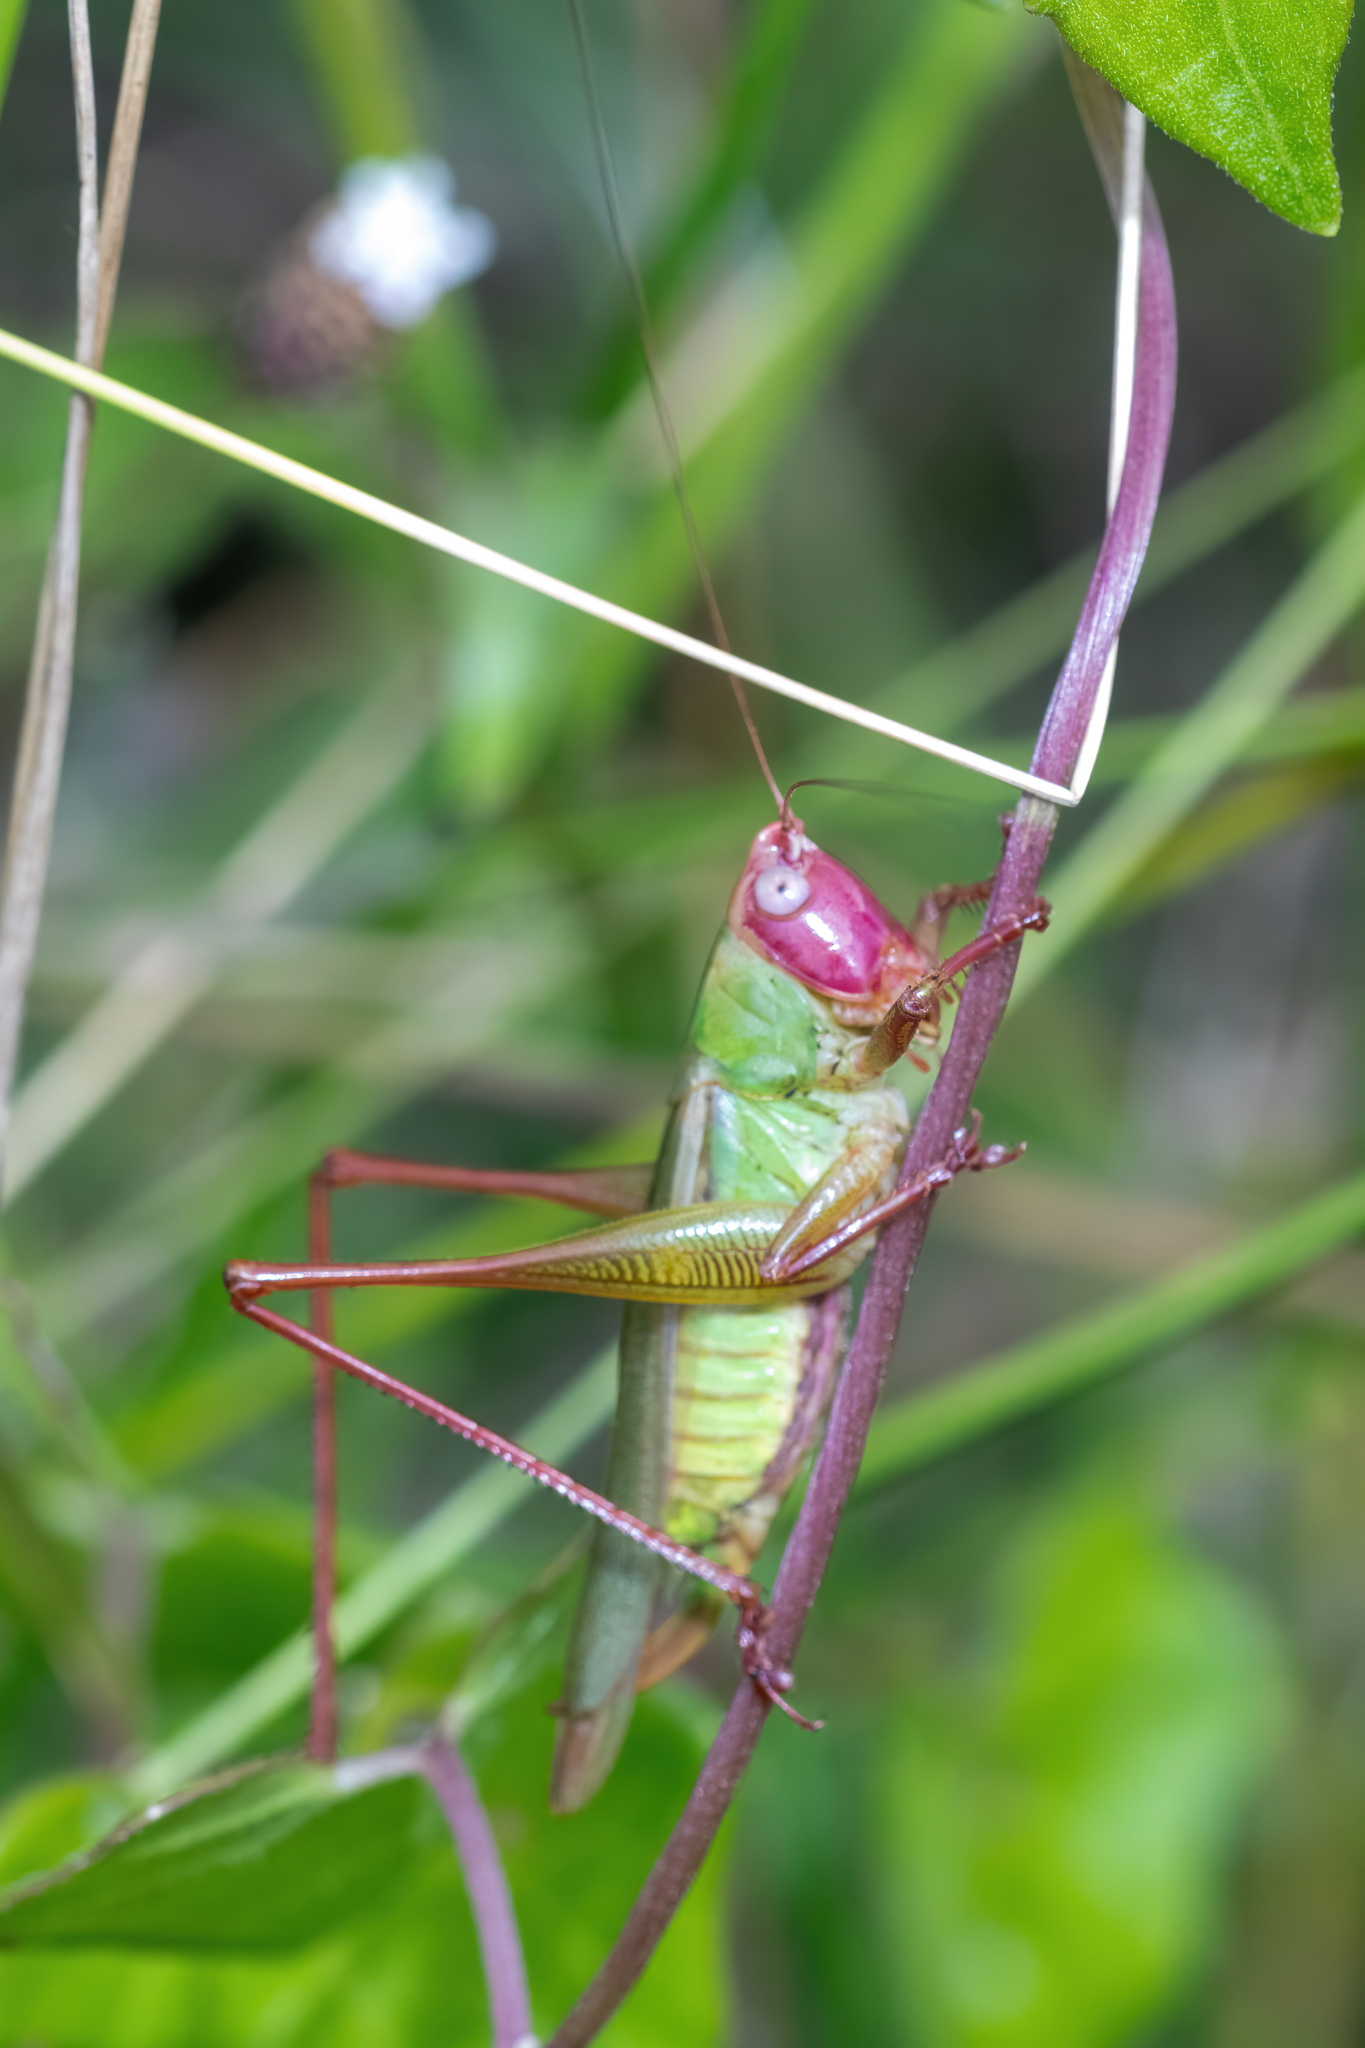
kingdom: Animalia
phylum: Arthropoda
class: Insecta
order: Orthoptera
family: Tettigoniidae
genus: Orchelimum
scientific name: Orchelimum erythrocephalum
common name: Red-headed meadow katydid
